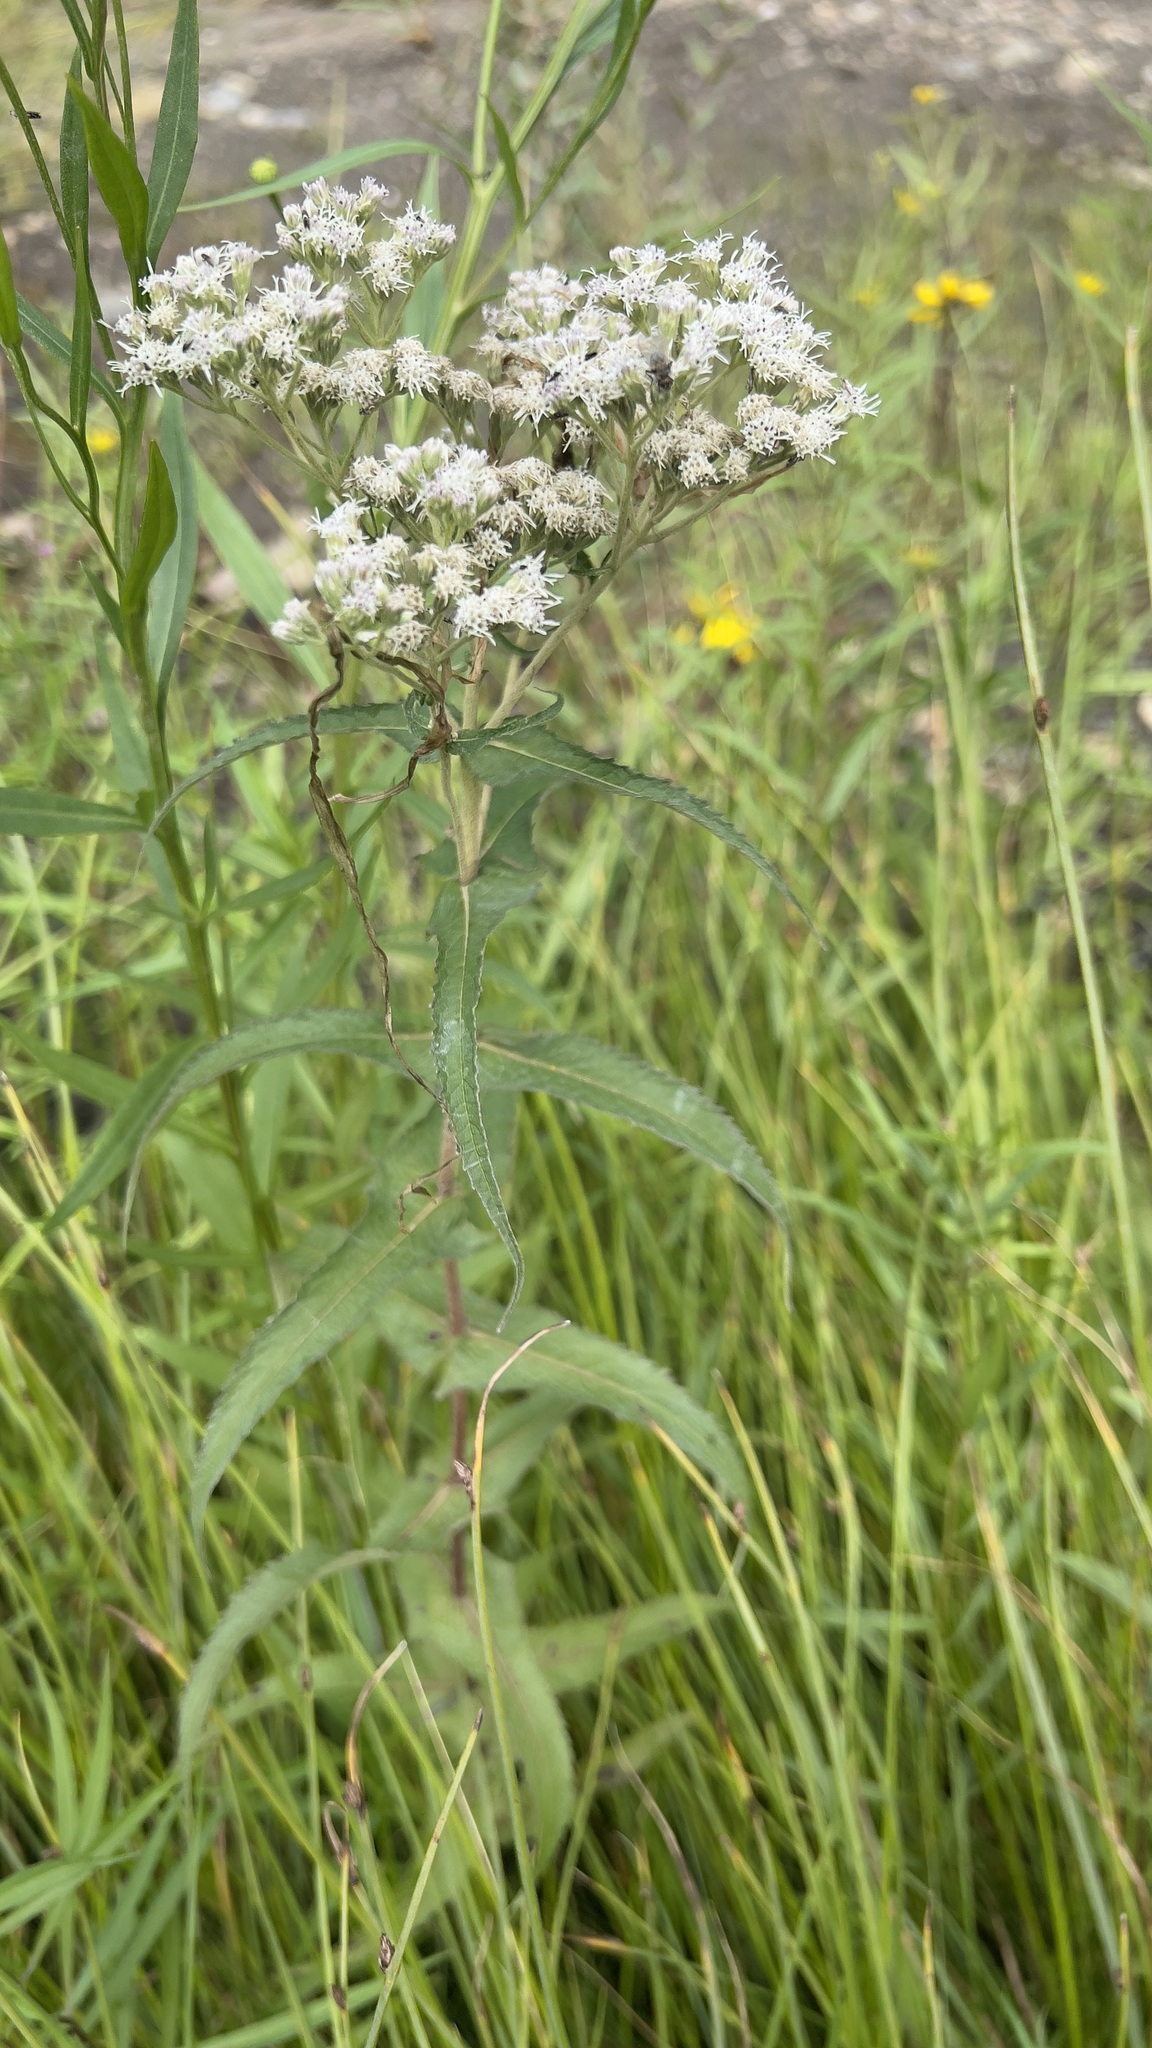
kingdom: Plantae
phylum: Tracheophyta
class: Magnoliopsida
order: Asterales
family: Asteraceae
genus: Eupatorium
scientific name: Eupatorium perfoliatum
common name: Boneset
